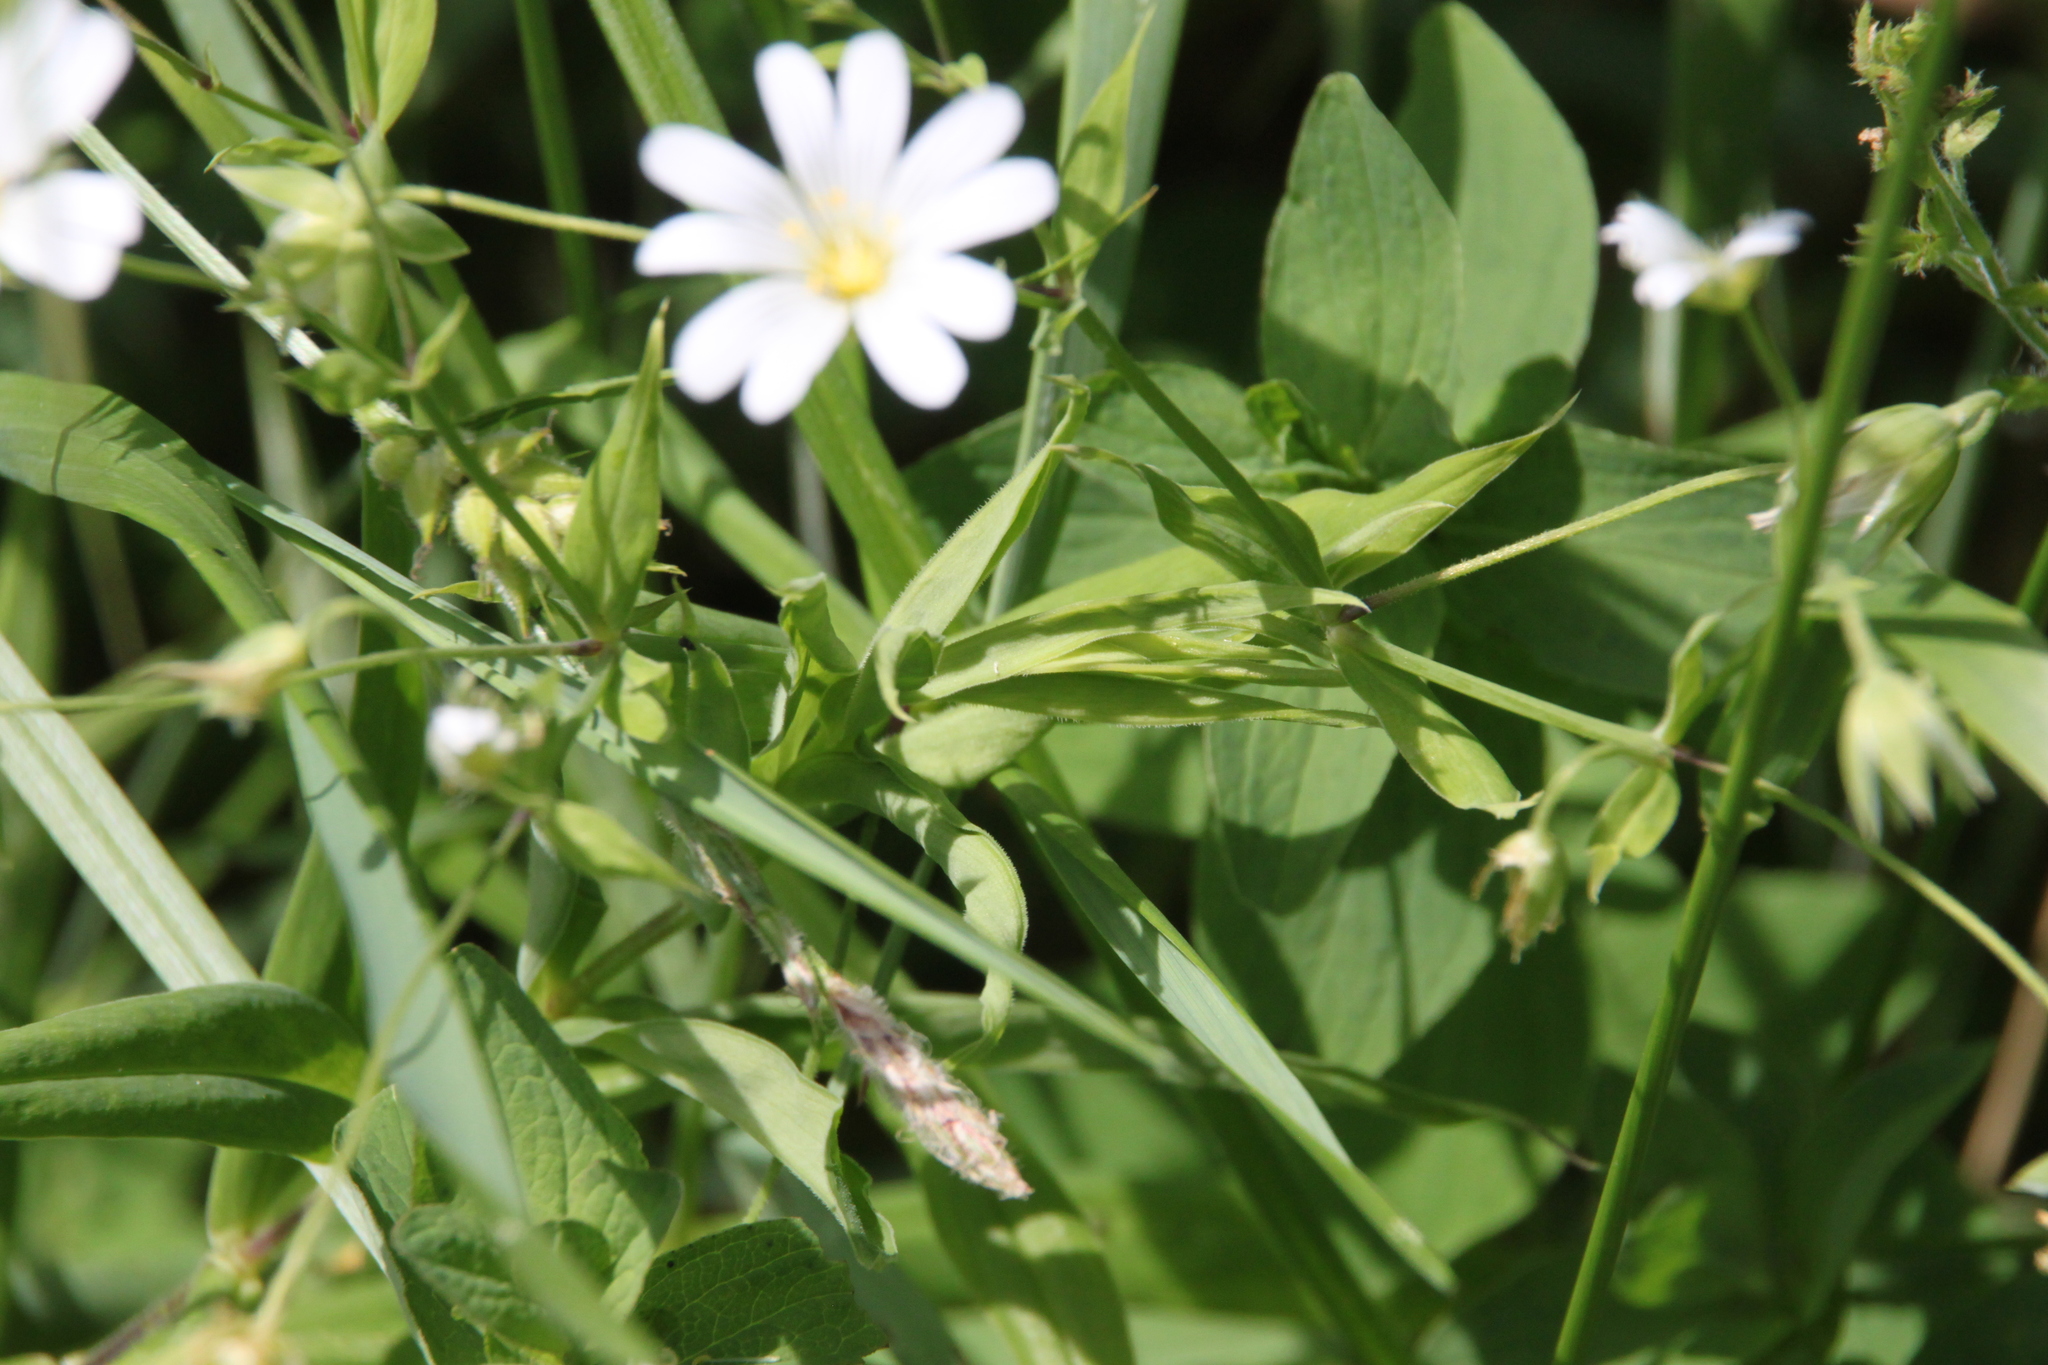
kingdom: Plantae
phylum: Tracheophyta
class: Magnoliopsida
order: Caryophyllales
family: Caryophyllaceae
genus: Rabelera
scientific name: Rabelera holostea
